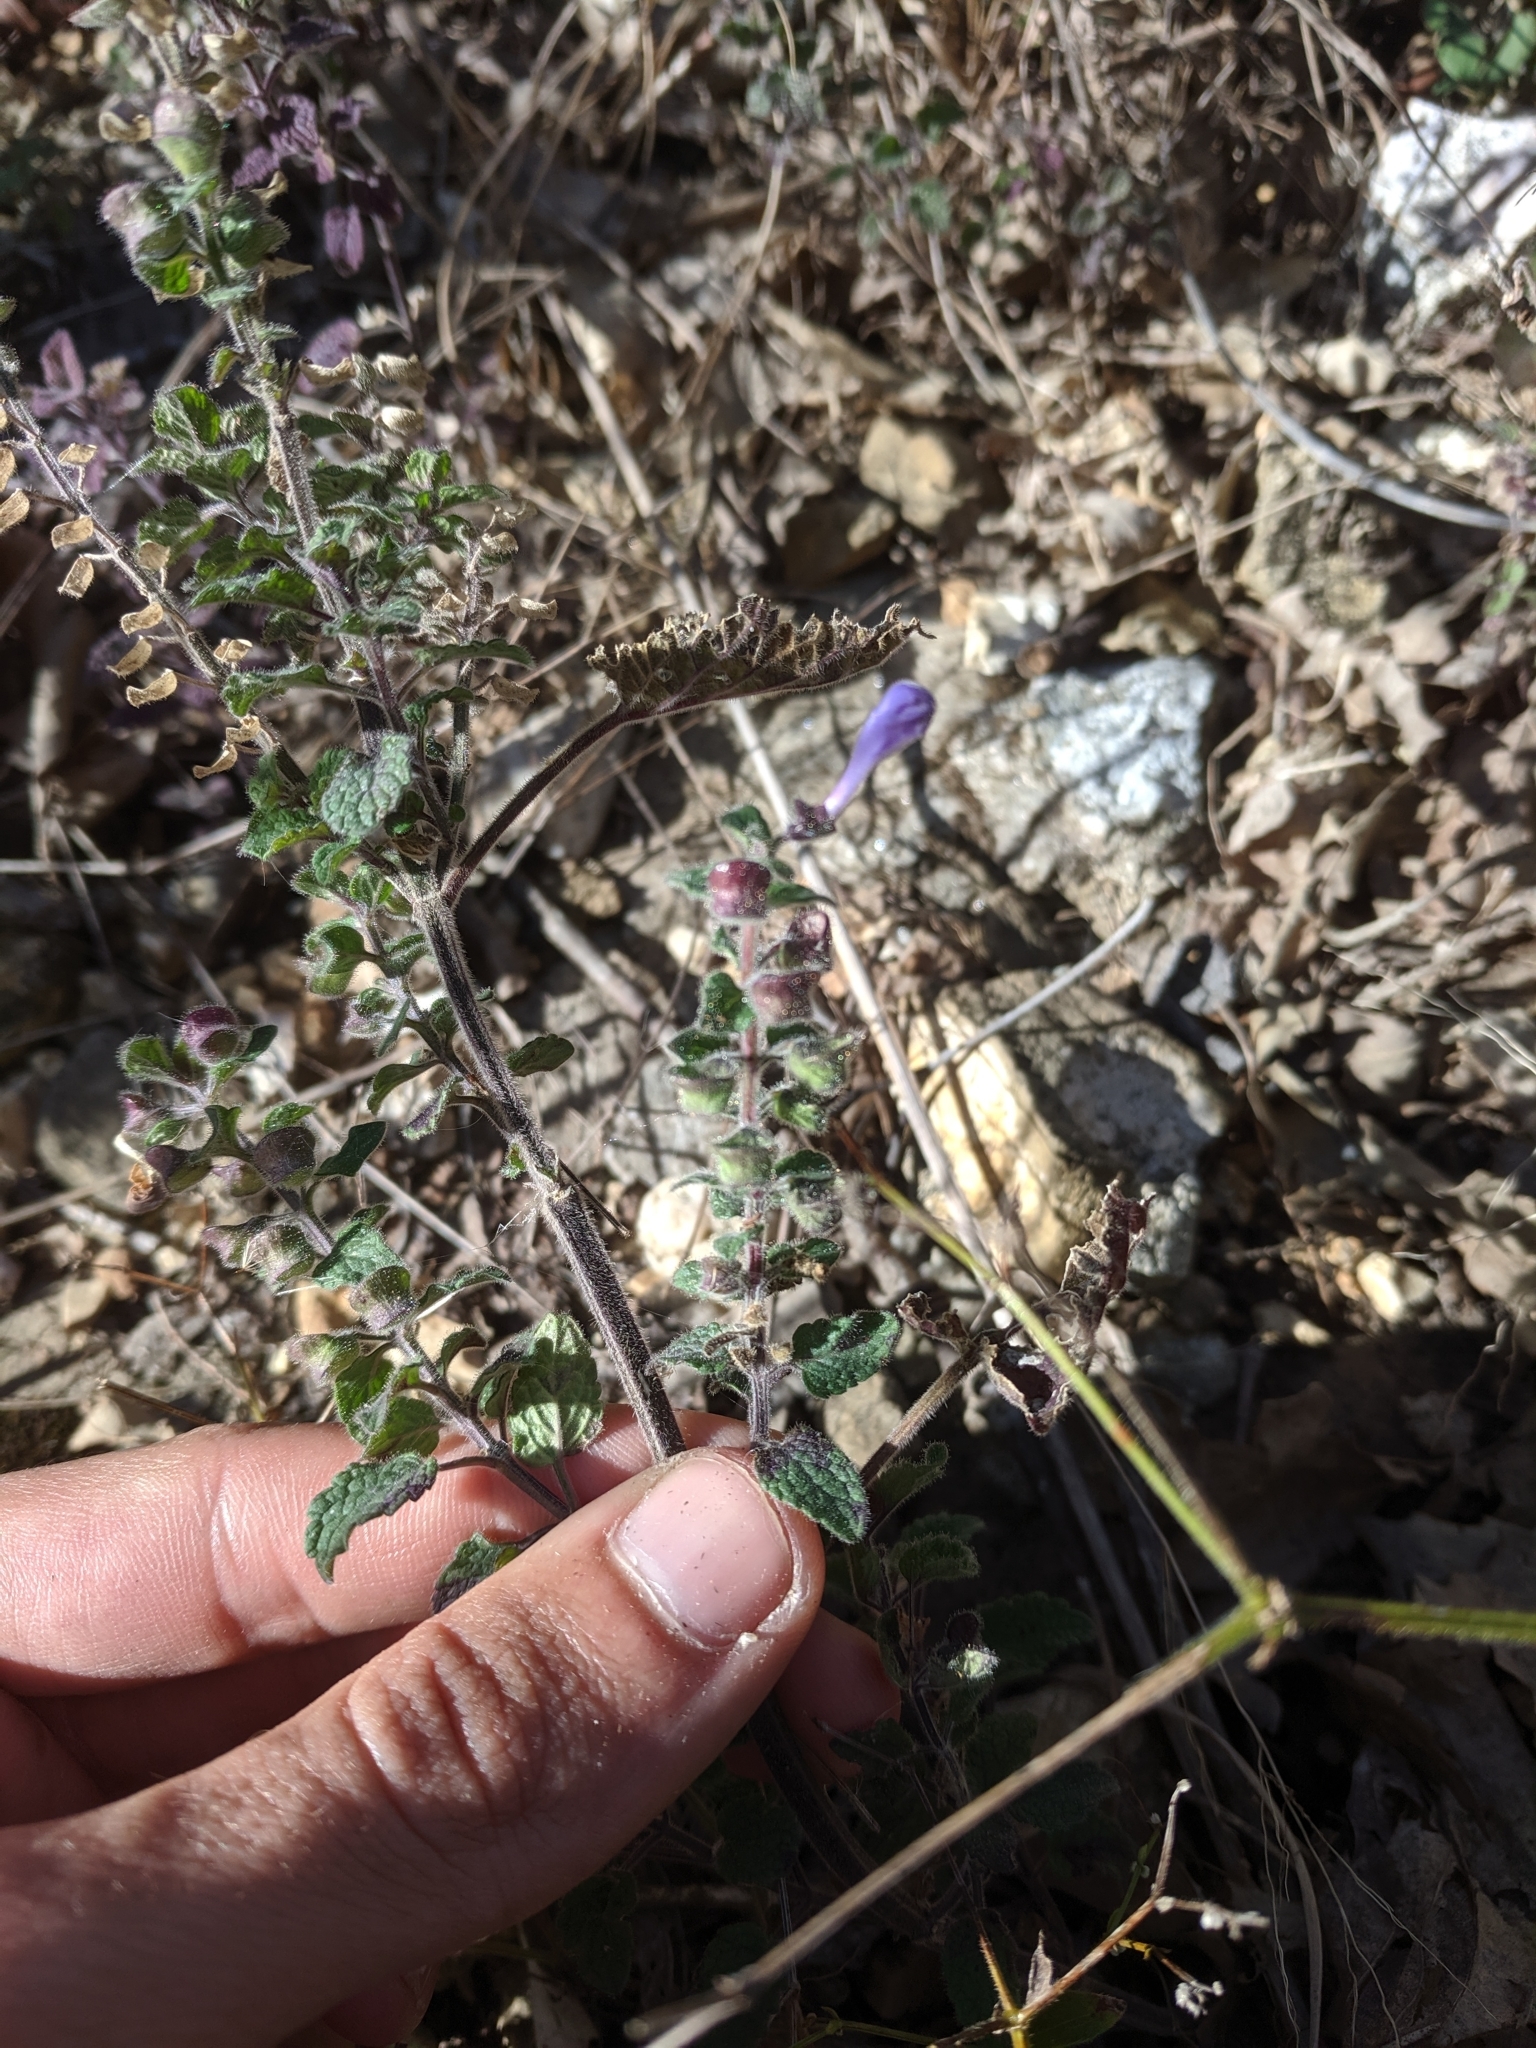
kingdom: Plantae
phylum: Tracheophyta
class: Magnoliopsida
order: Lamiales
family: Lamiaceae
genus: Scutellaria
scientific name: Scutellaria ovata
